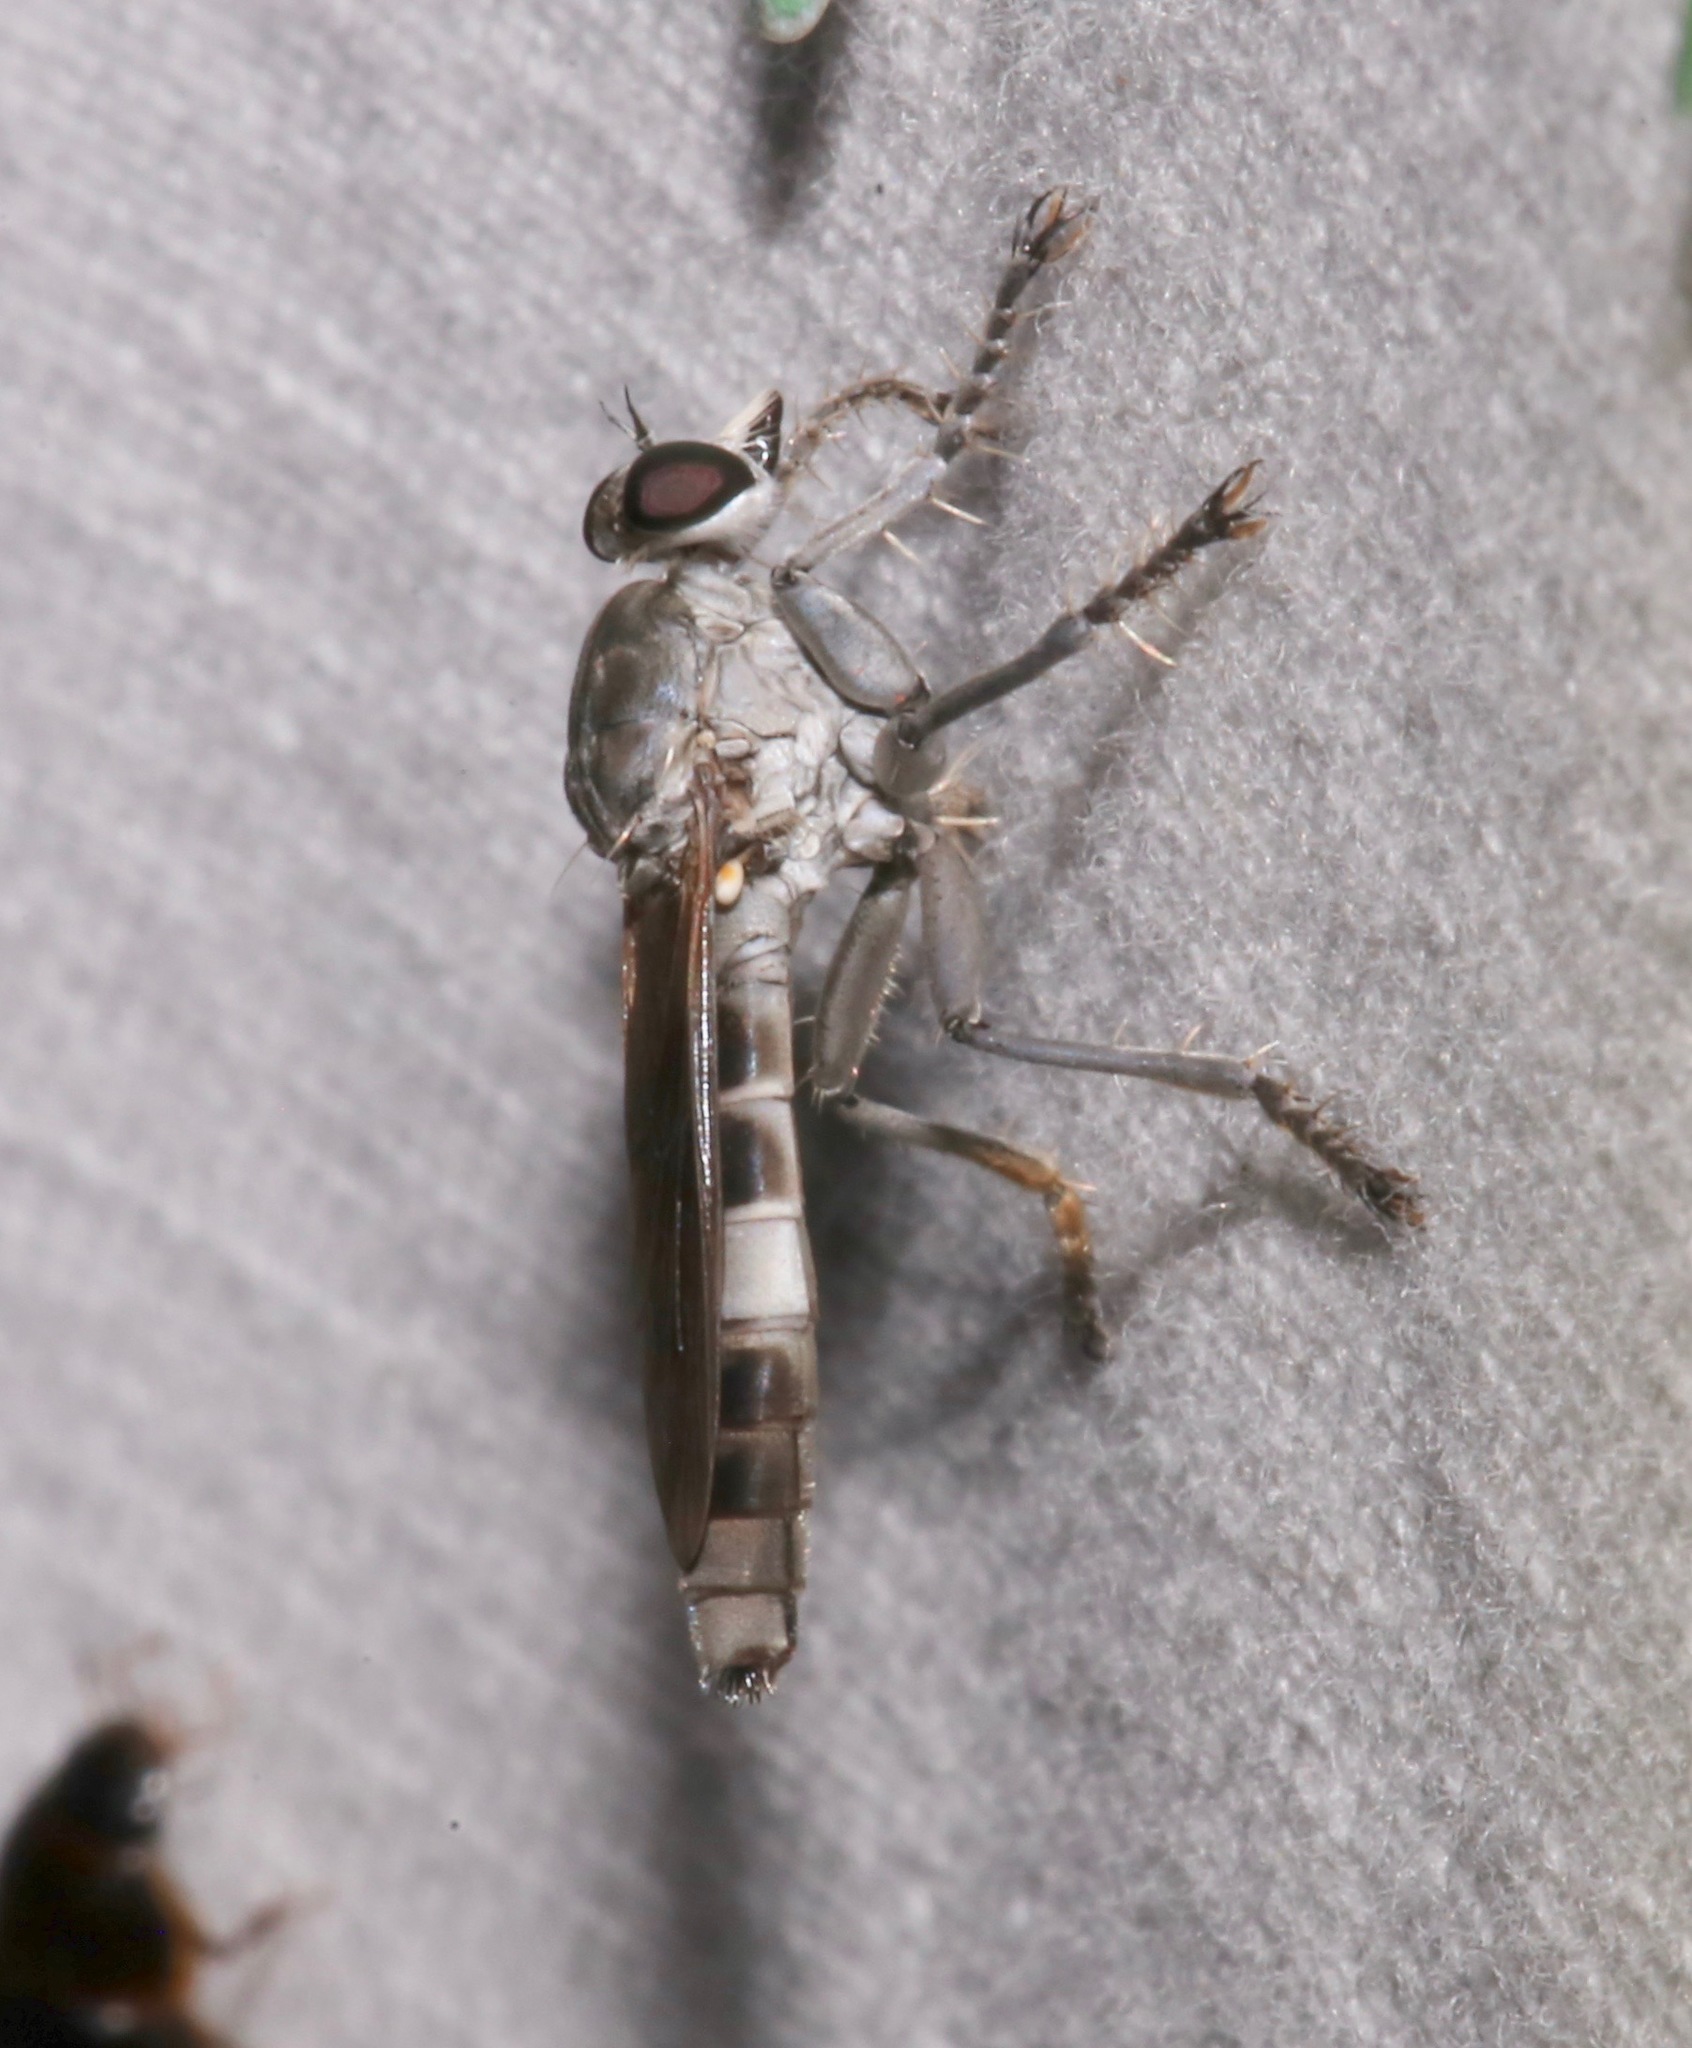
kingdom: Animalia
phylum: Arthropoda
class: Insecta
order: Diptera
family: Asilidae
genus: Stichopogon
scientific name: Stichopogon trifasciatus
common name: Three-banded robber fly
